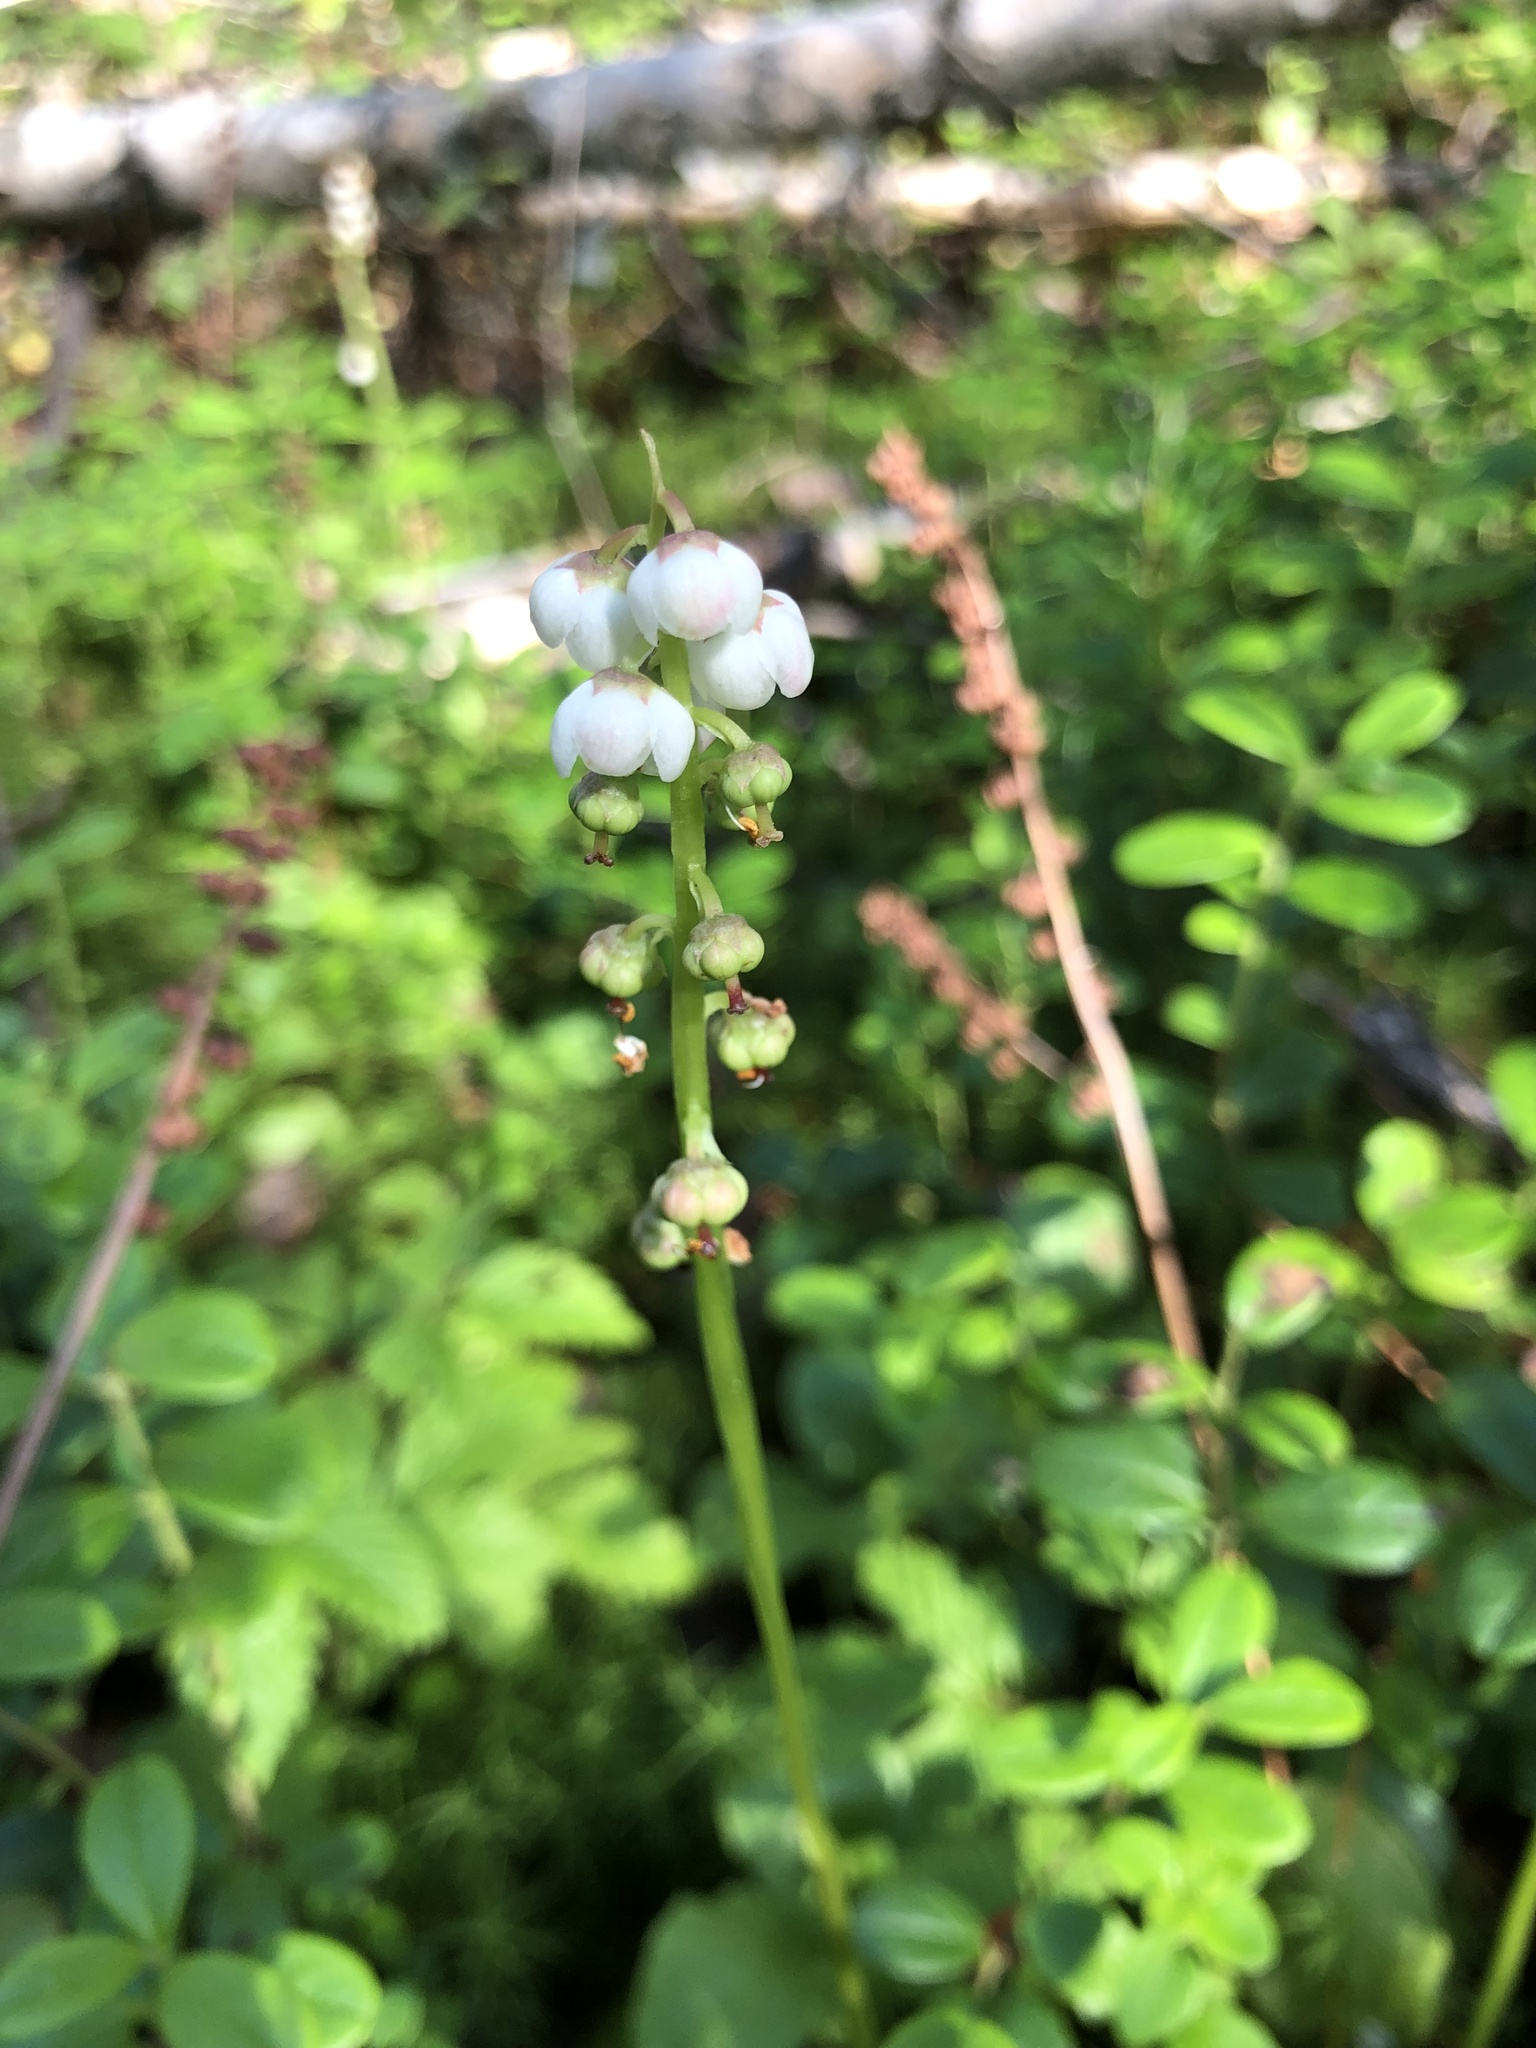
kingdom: Plantae
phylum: Tracheophyta
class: Magnoliopsida
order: Ericales
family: Ericaceae
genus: Pyrola
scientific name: Pyrola minor
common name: Common wintergreen
